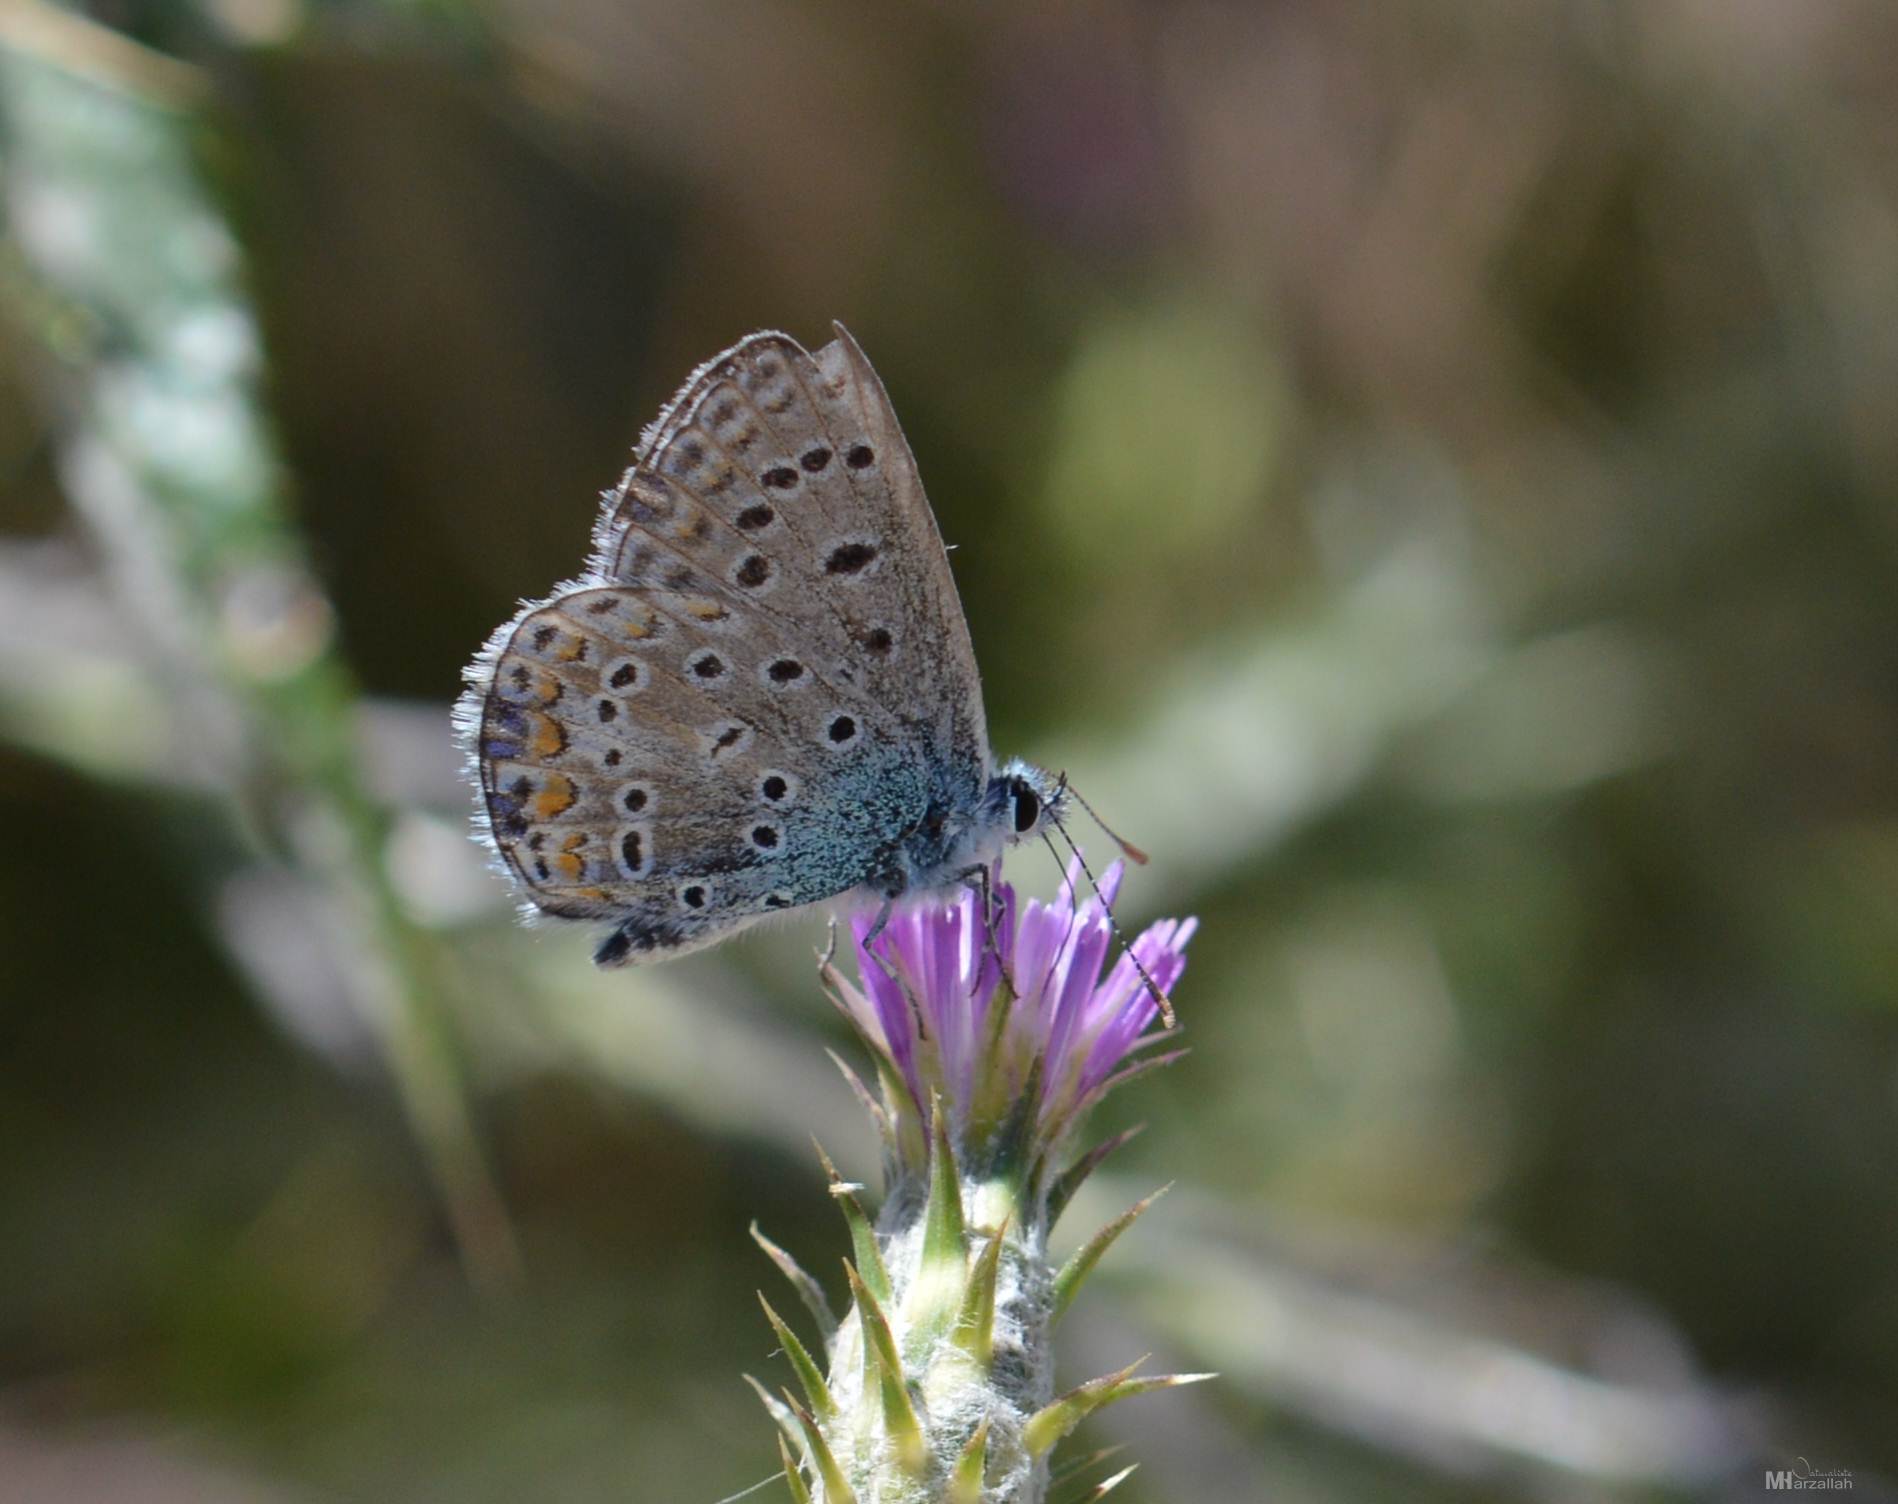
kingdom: Animalia
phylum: Arthropoda
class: Insecta
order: Lepidoptera
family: Lycaenidae
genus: Polyommatus
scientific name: Polyommatus celina
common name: Austaut's blue
